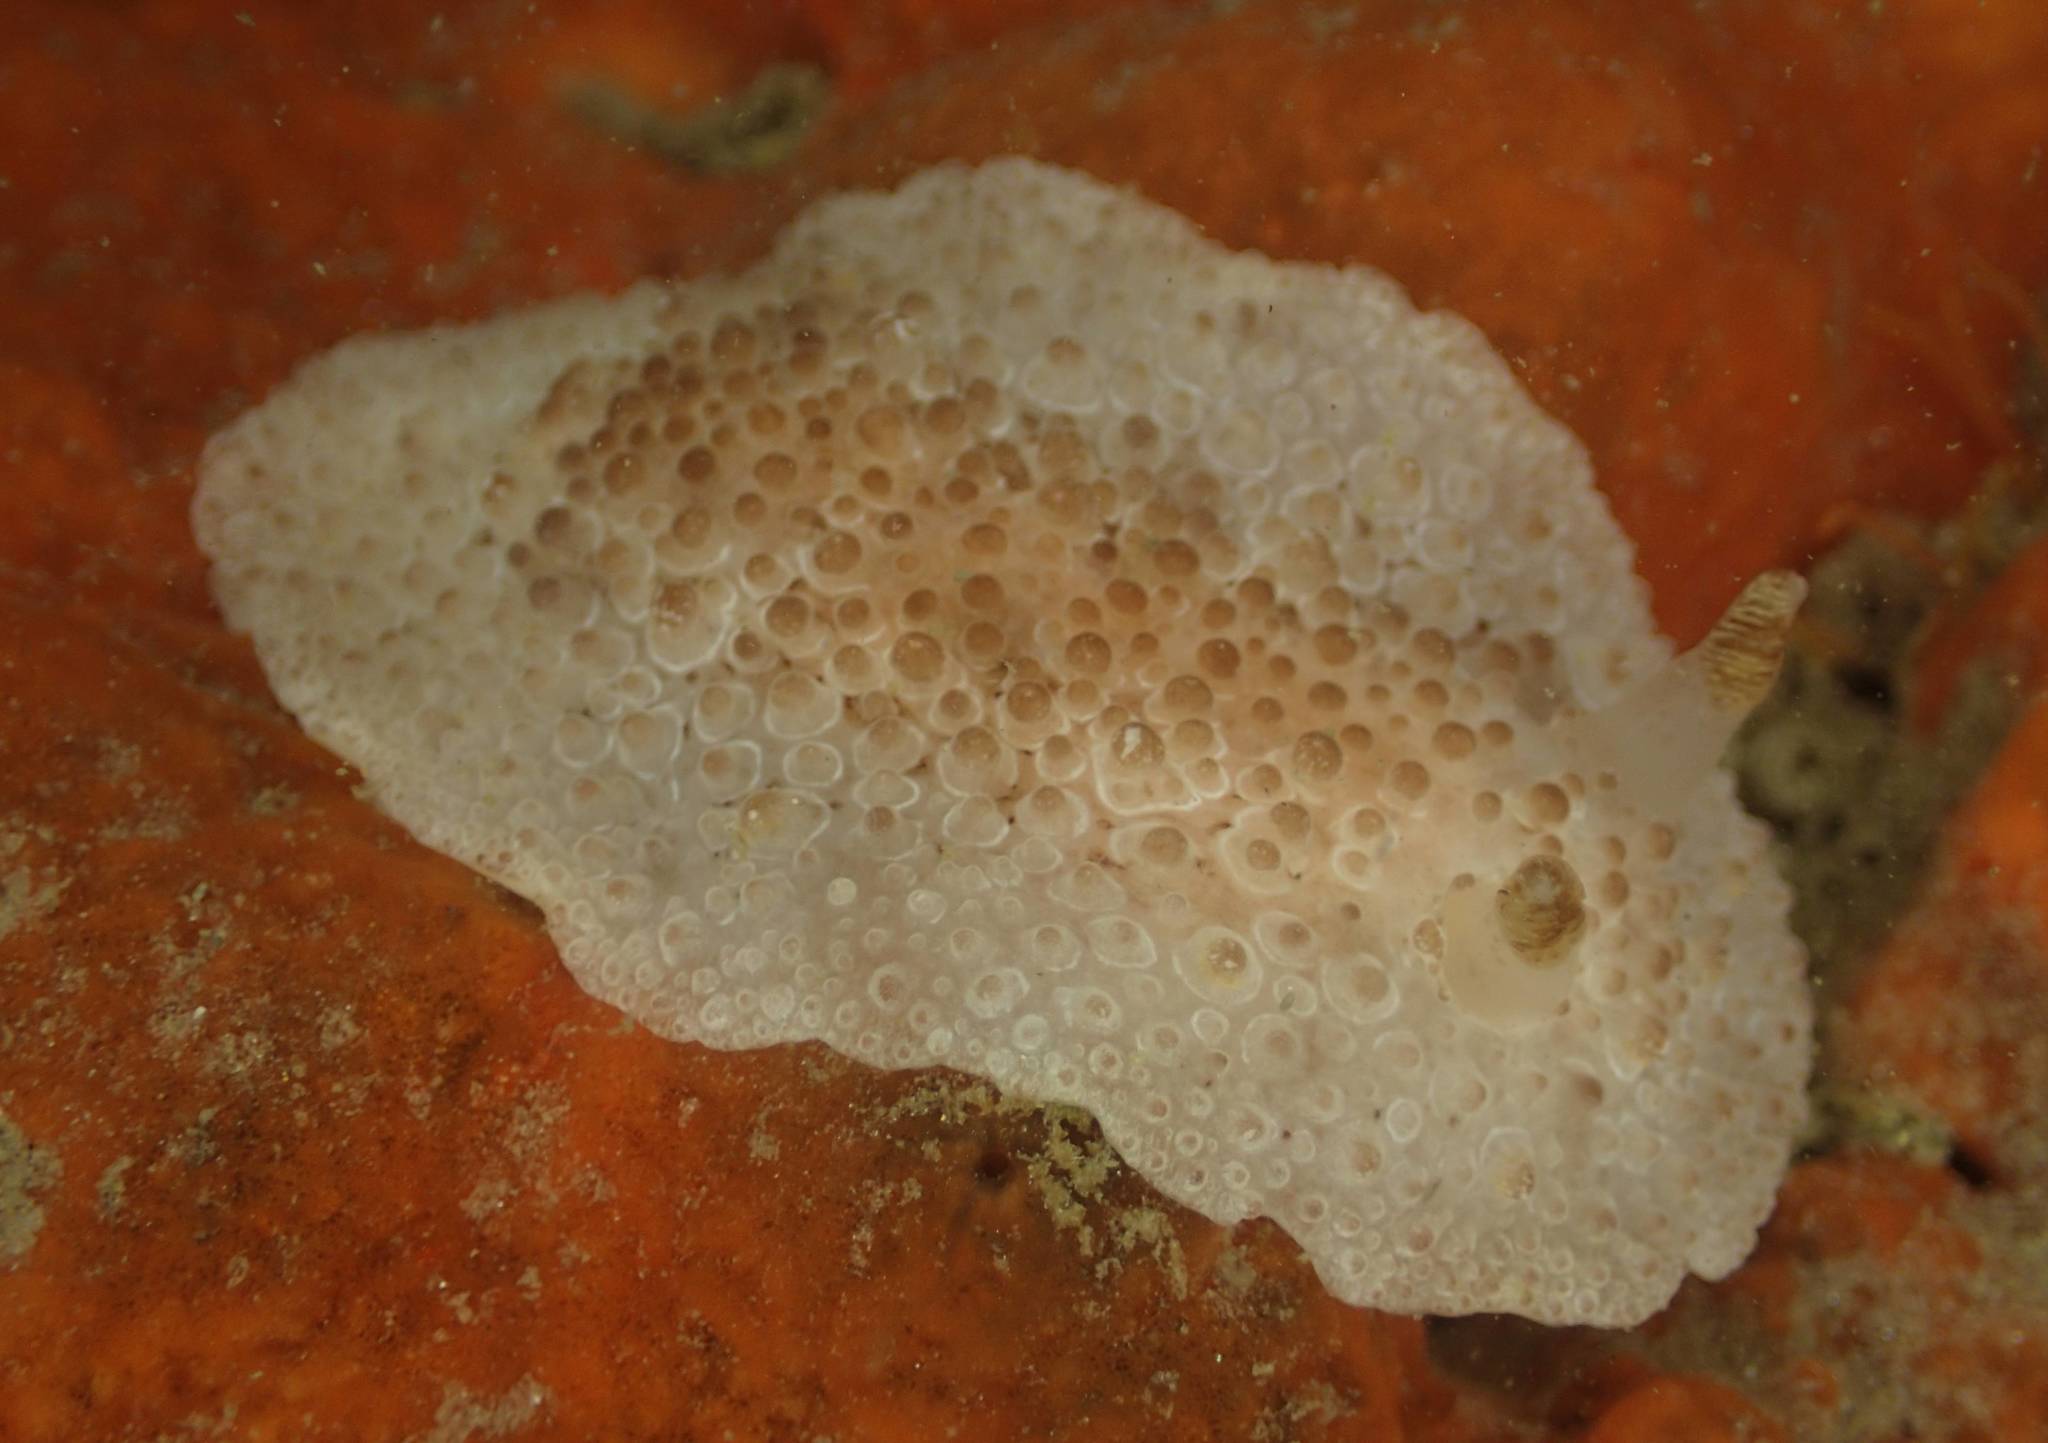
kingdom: Animalia
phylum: Mollusca
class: Gastropoda
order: Nudibranchia
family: Discodorididae
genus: Carminodoris
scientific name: Carminodoris nodulosa
